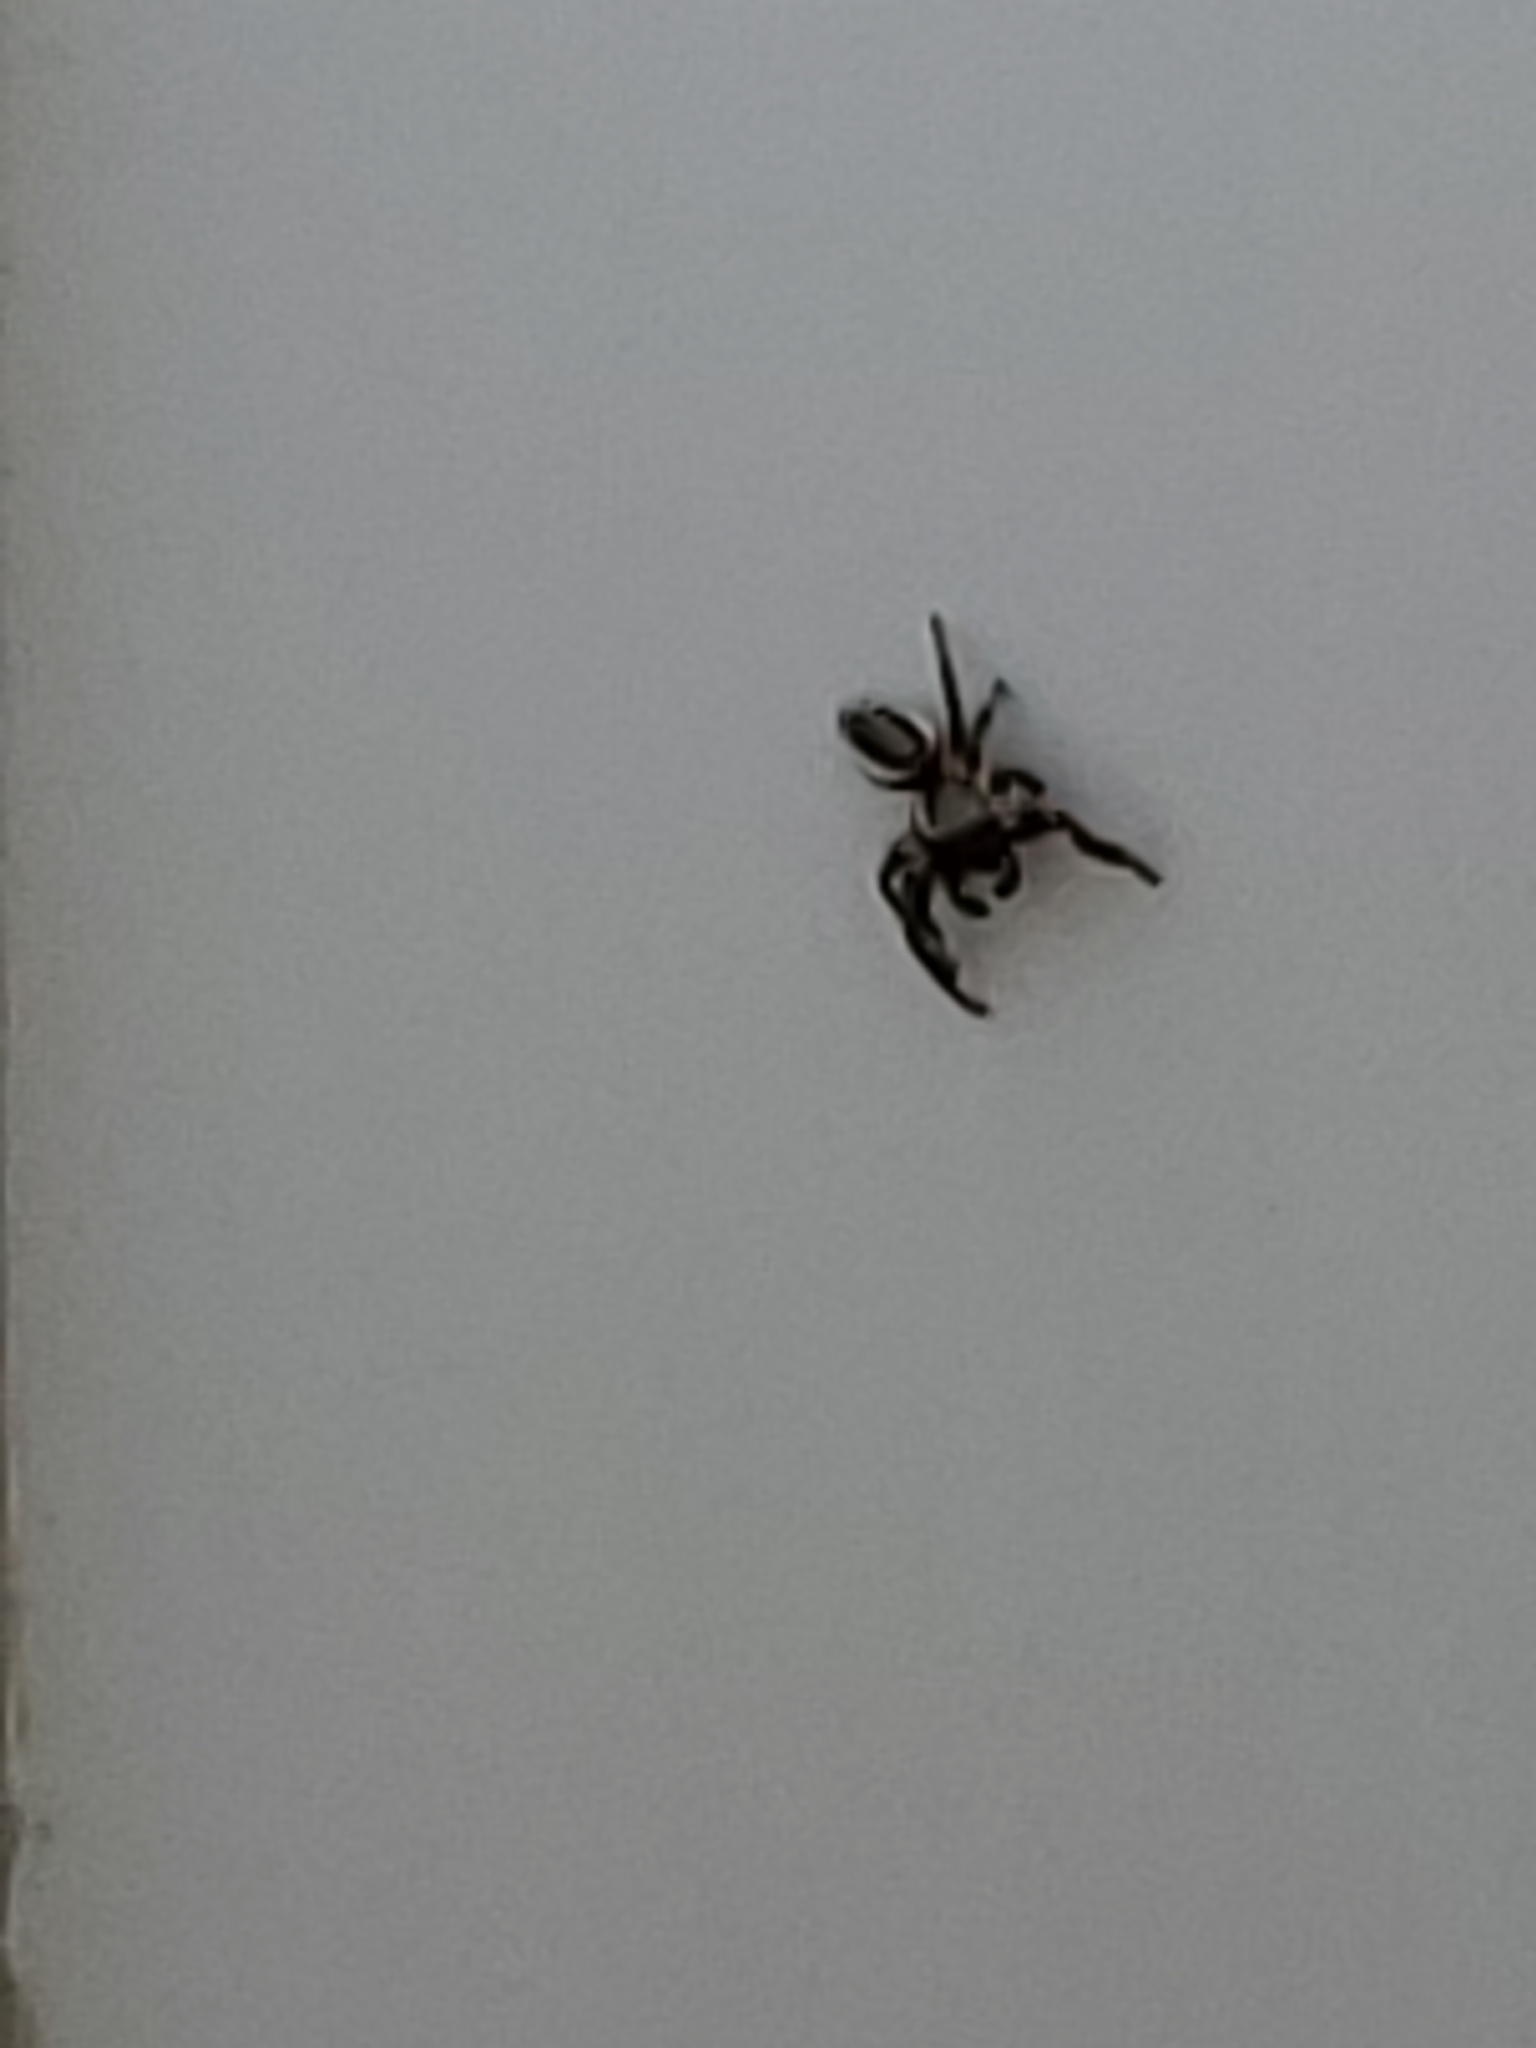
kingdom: Animalia
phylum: Arthropoda
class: Arachnida
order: Araneae
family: Salticidae
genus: Eris
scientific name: Eris militaris
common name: Bronze jumper
